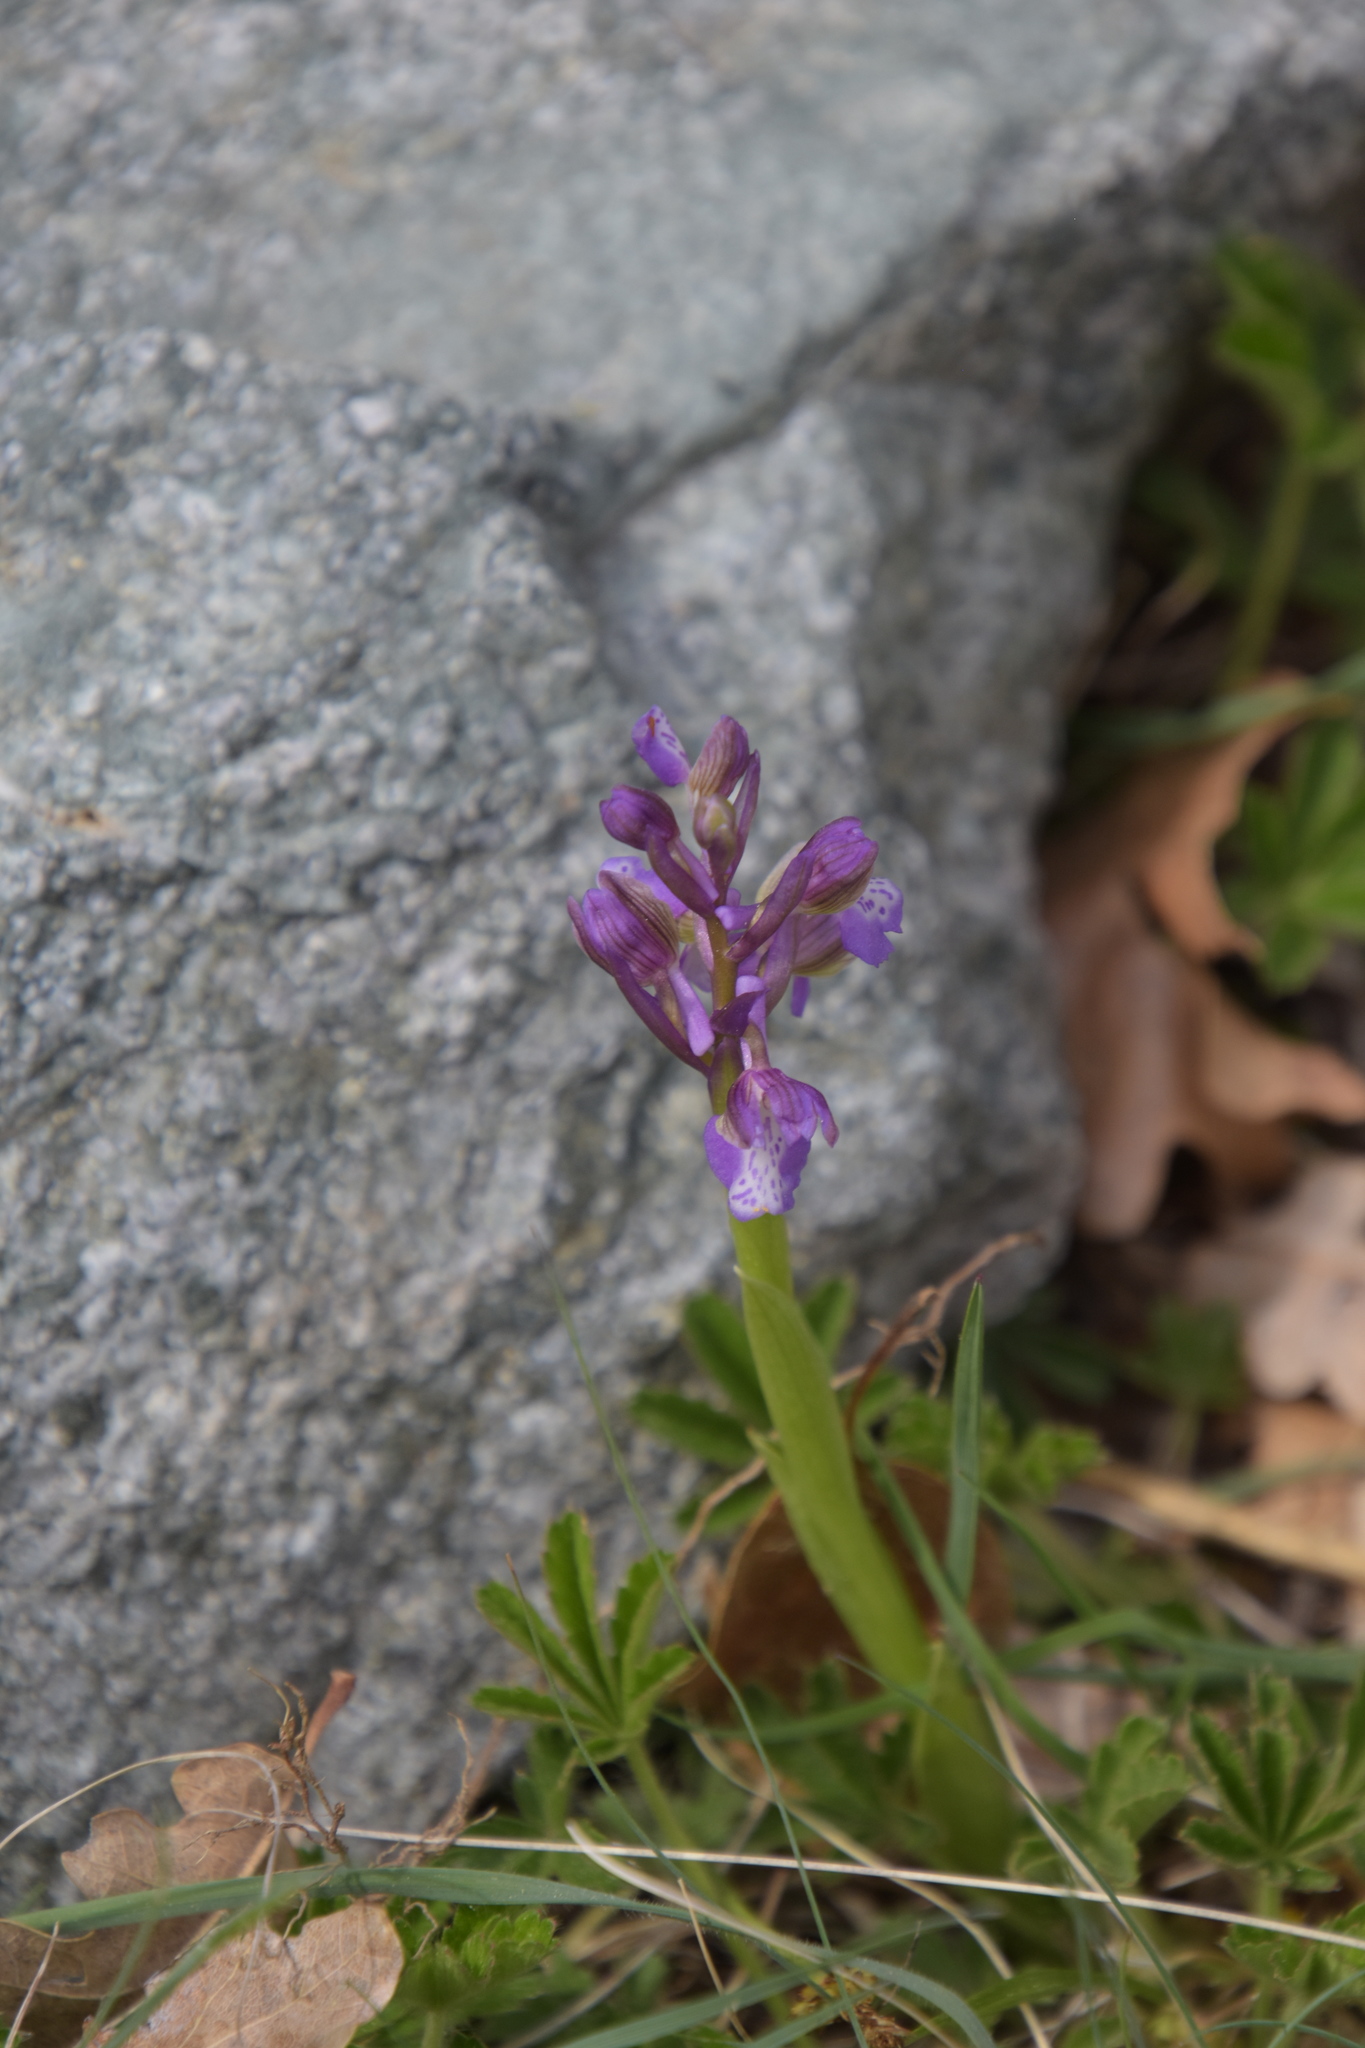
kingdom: Plantae
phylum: Tracheophyta
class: Liliopsida
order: Asparagales
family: Orchidaceae
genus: Anacamptis
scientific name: Anacamptis morio
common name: Green-winged orchid
